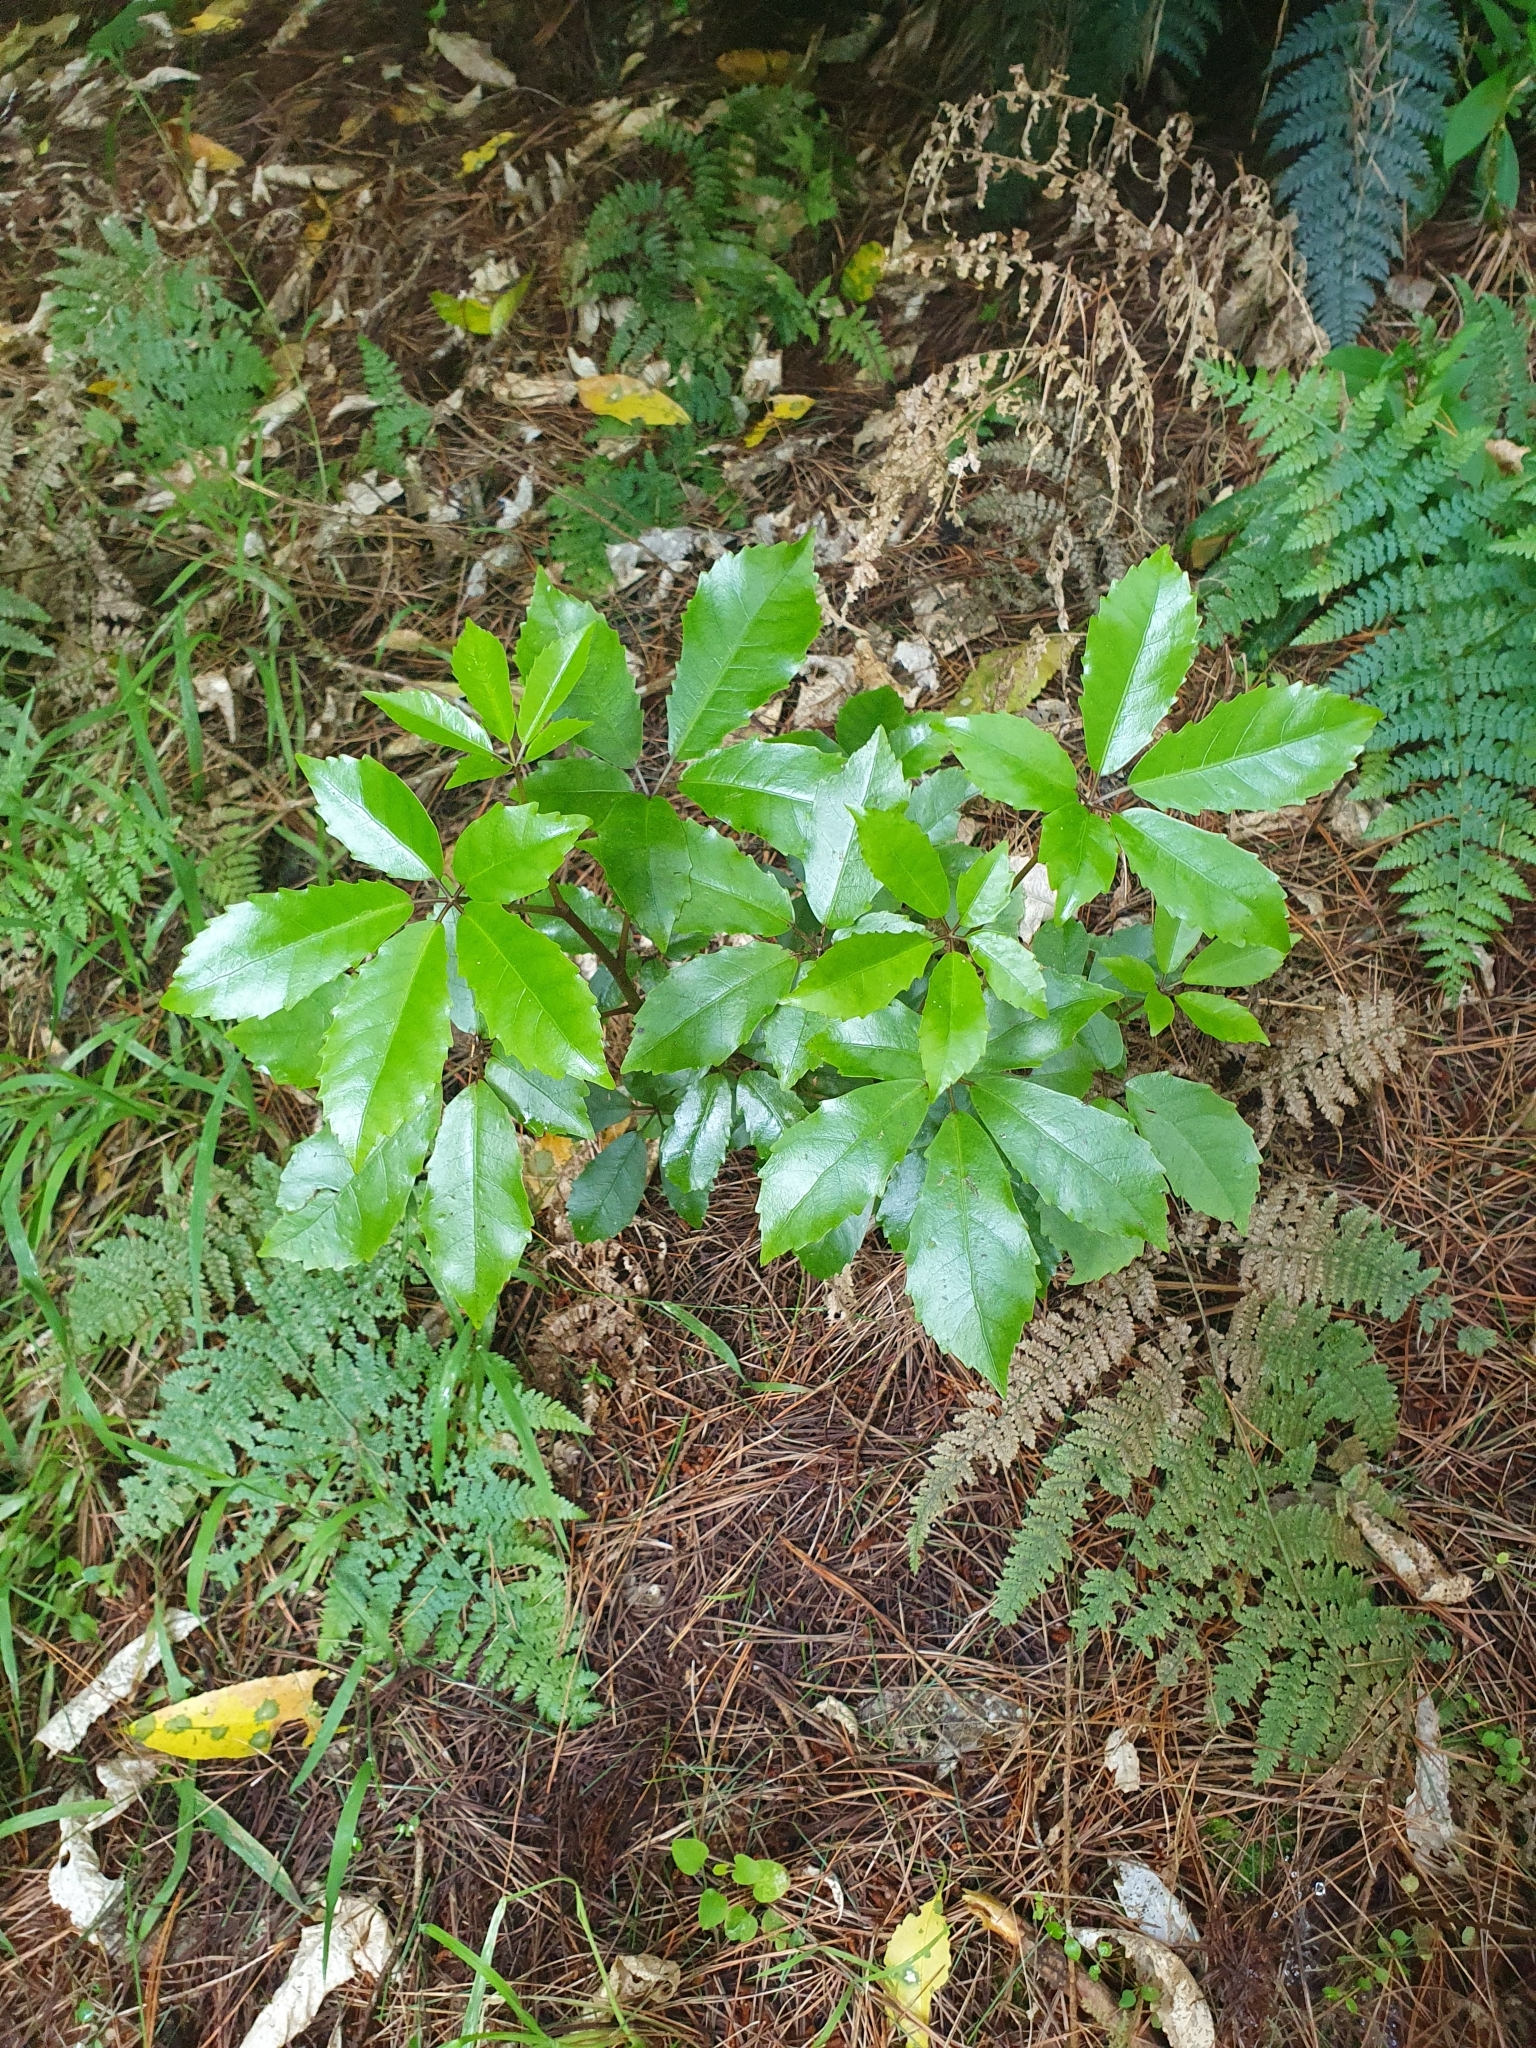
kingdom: Plantae
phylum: Tracheophyta
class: Magnoliopsida
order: Apiales
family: Araliaceae
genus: Neopanax
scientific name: Neopanax arboreus
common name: Five-fingers
